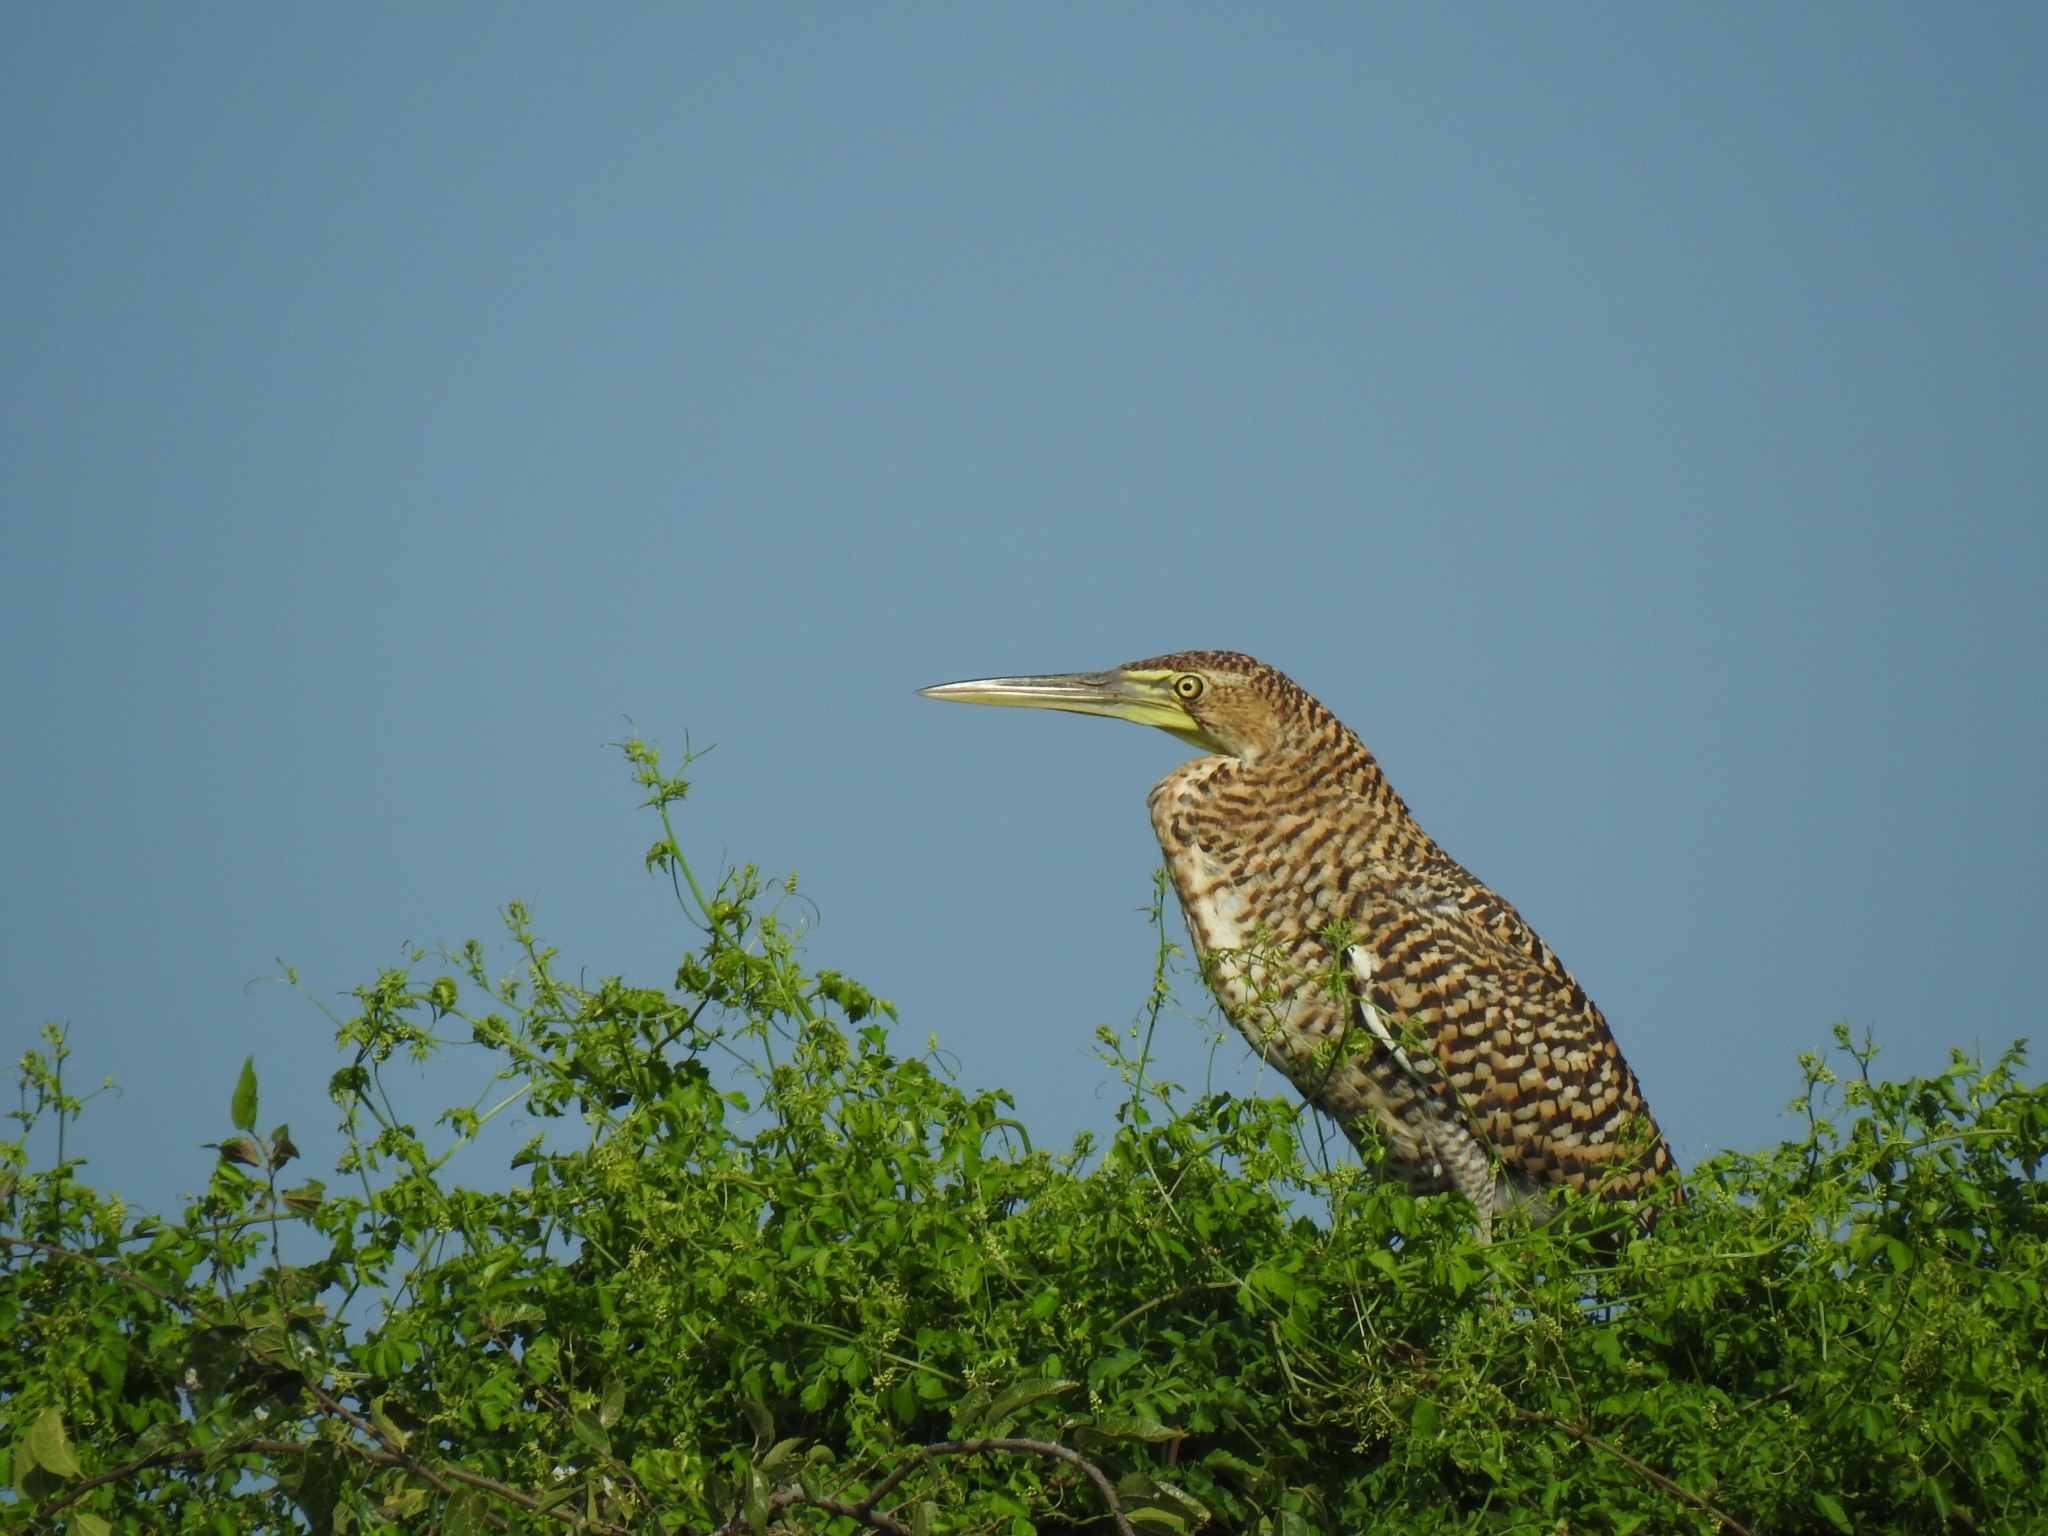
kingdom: Animalia
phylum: Chordata
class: Aves
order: Pelecaniformes
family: Ardeidae
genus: Tigrisoma
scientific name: Tigrisoma mexicanum
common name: Bare-throated tiger-heron
